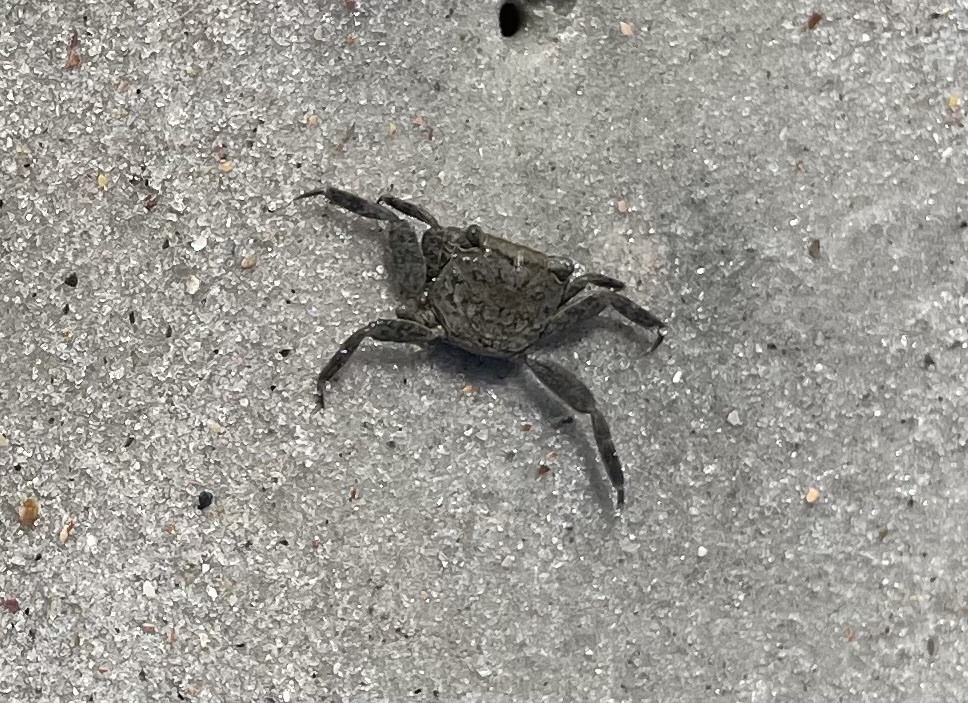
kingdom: Animalia
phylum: Arthropoda
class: Malacostraca
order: Decapoda
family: Sesarmidae
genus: Armases
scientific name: Armases cinereum
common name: Squareback marsh crab
